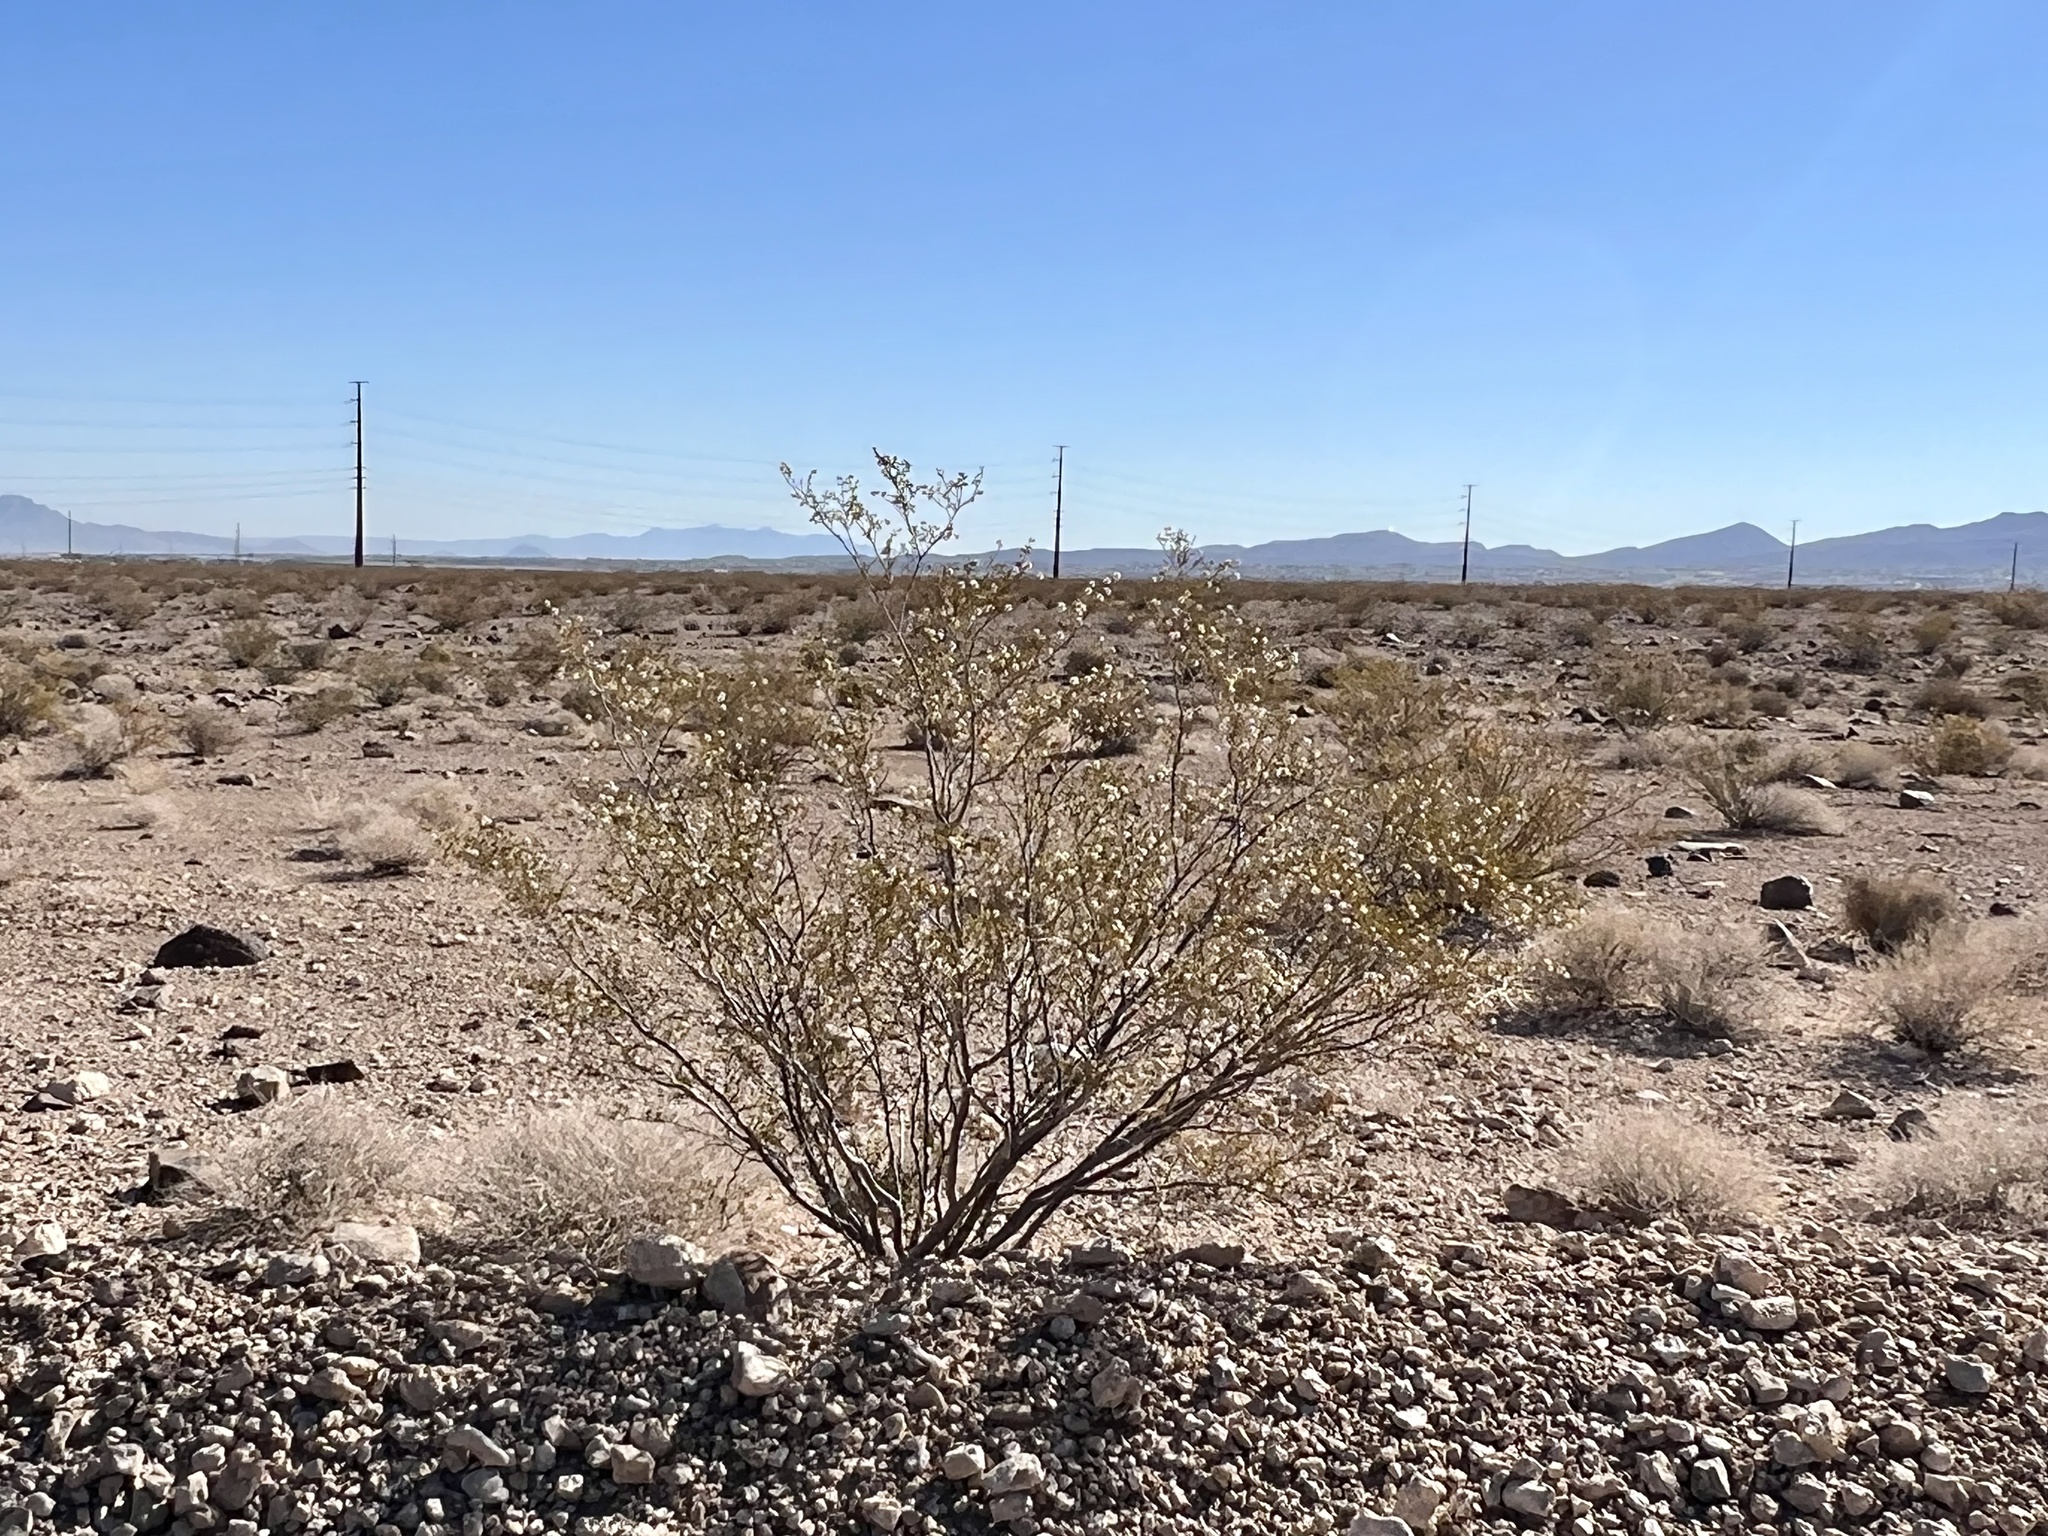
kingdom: Plantae
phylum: Tracheophyta
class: Magnoliopsida
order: Zygophyllales
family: Zygophyllaceae
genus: Larrea
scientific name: Larrea tridentata
